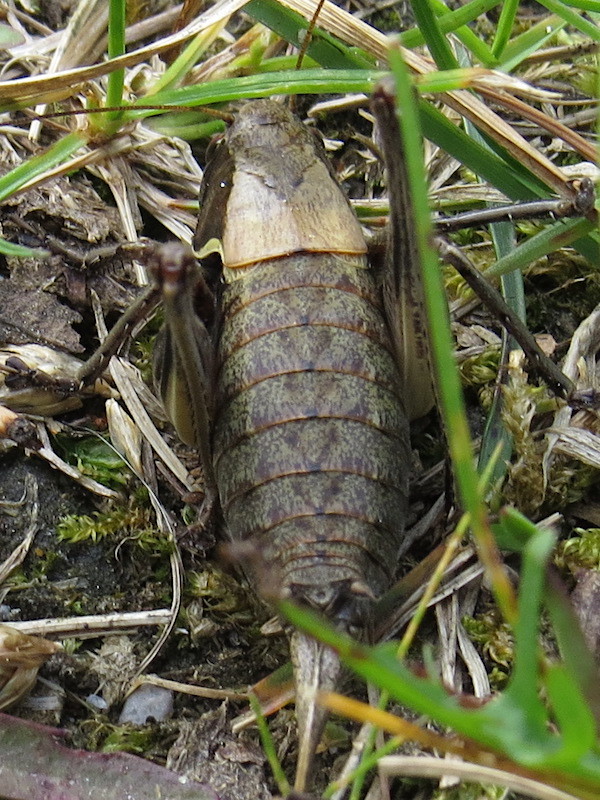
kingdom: Animalia
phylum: Arthropoda
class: Insecta
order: Orthoptera
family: Tettigoniidae
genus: Pholidoptera
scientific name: Pholidoptera aptera
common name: Alpine dark bush-cricket
